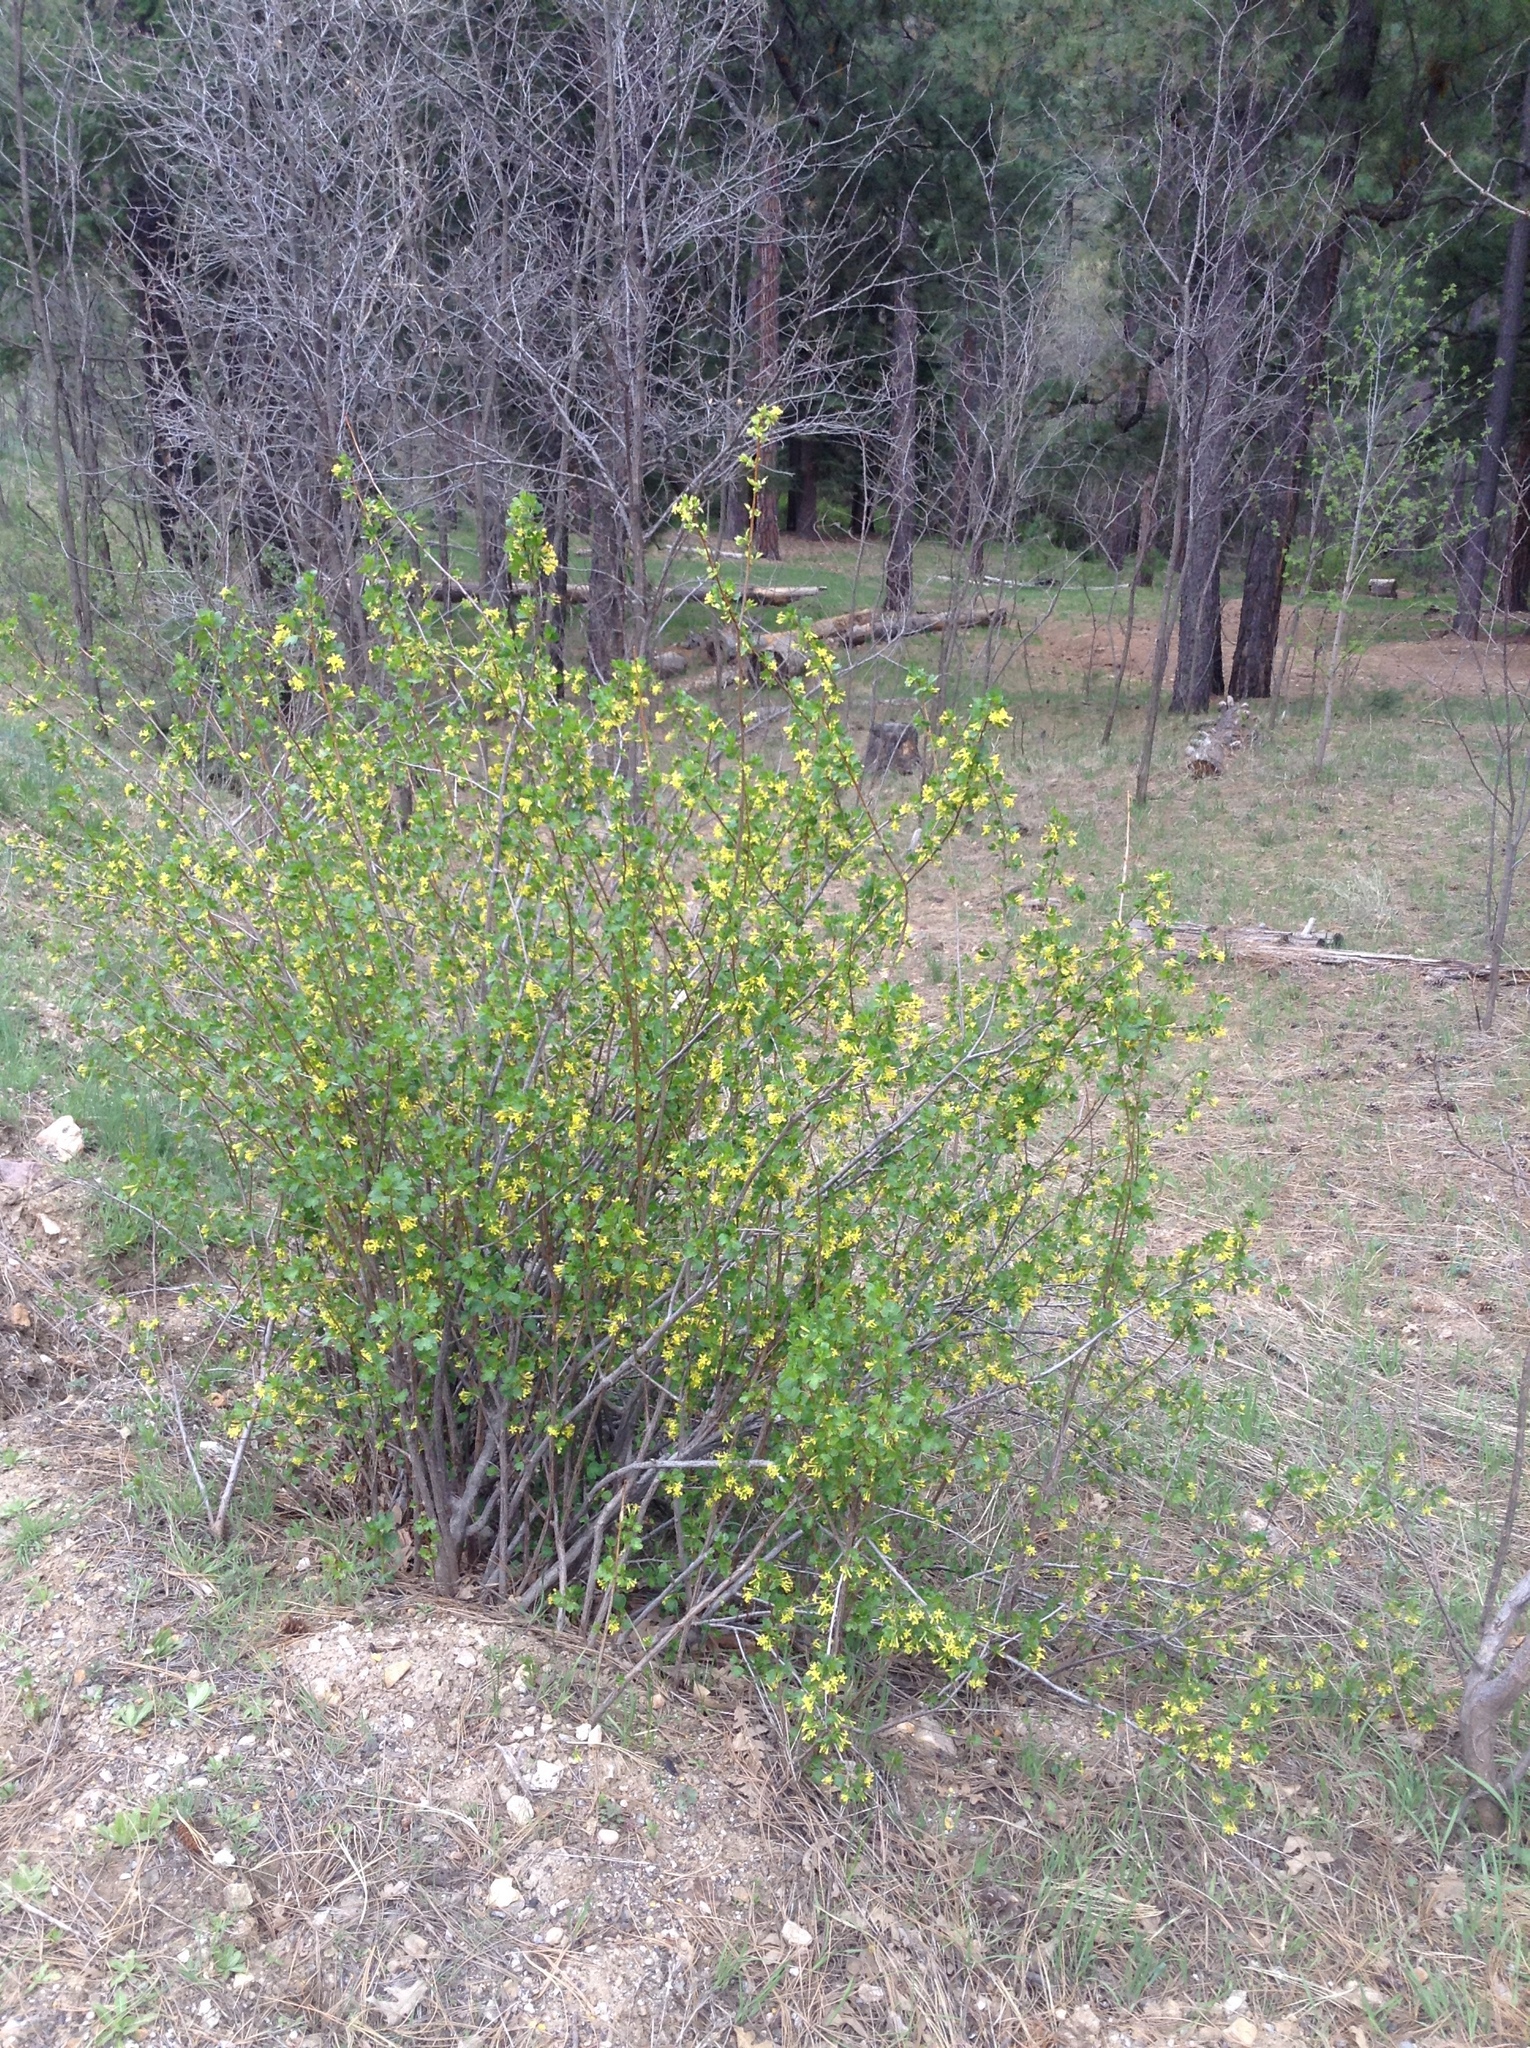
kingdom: Plantae
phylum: Tracheophyta
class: Magnoliopsida
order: Saxifragales
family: Grossulariaceae
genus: Ribes
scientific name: Ribes aureum
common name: Golden currant
